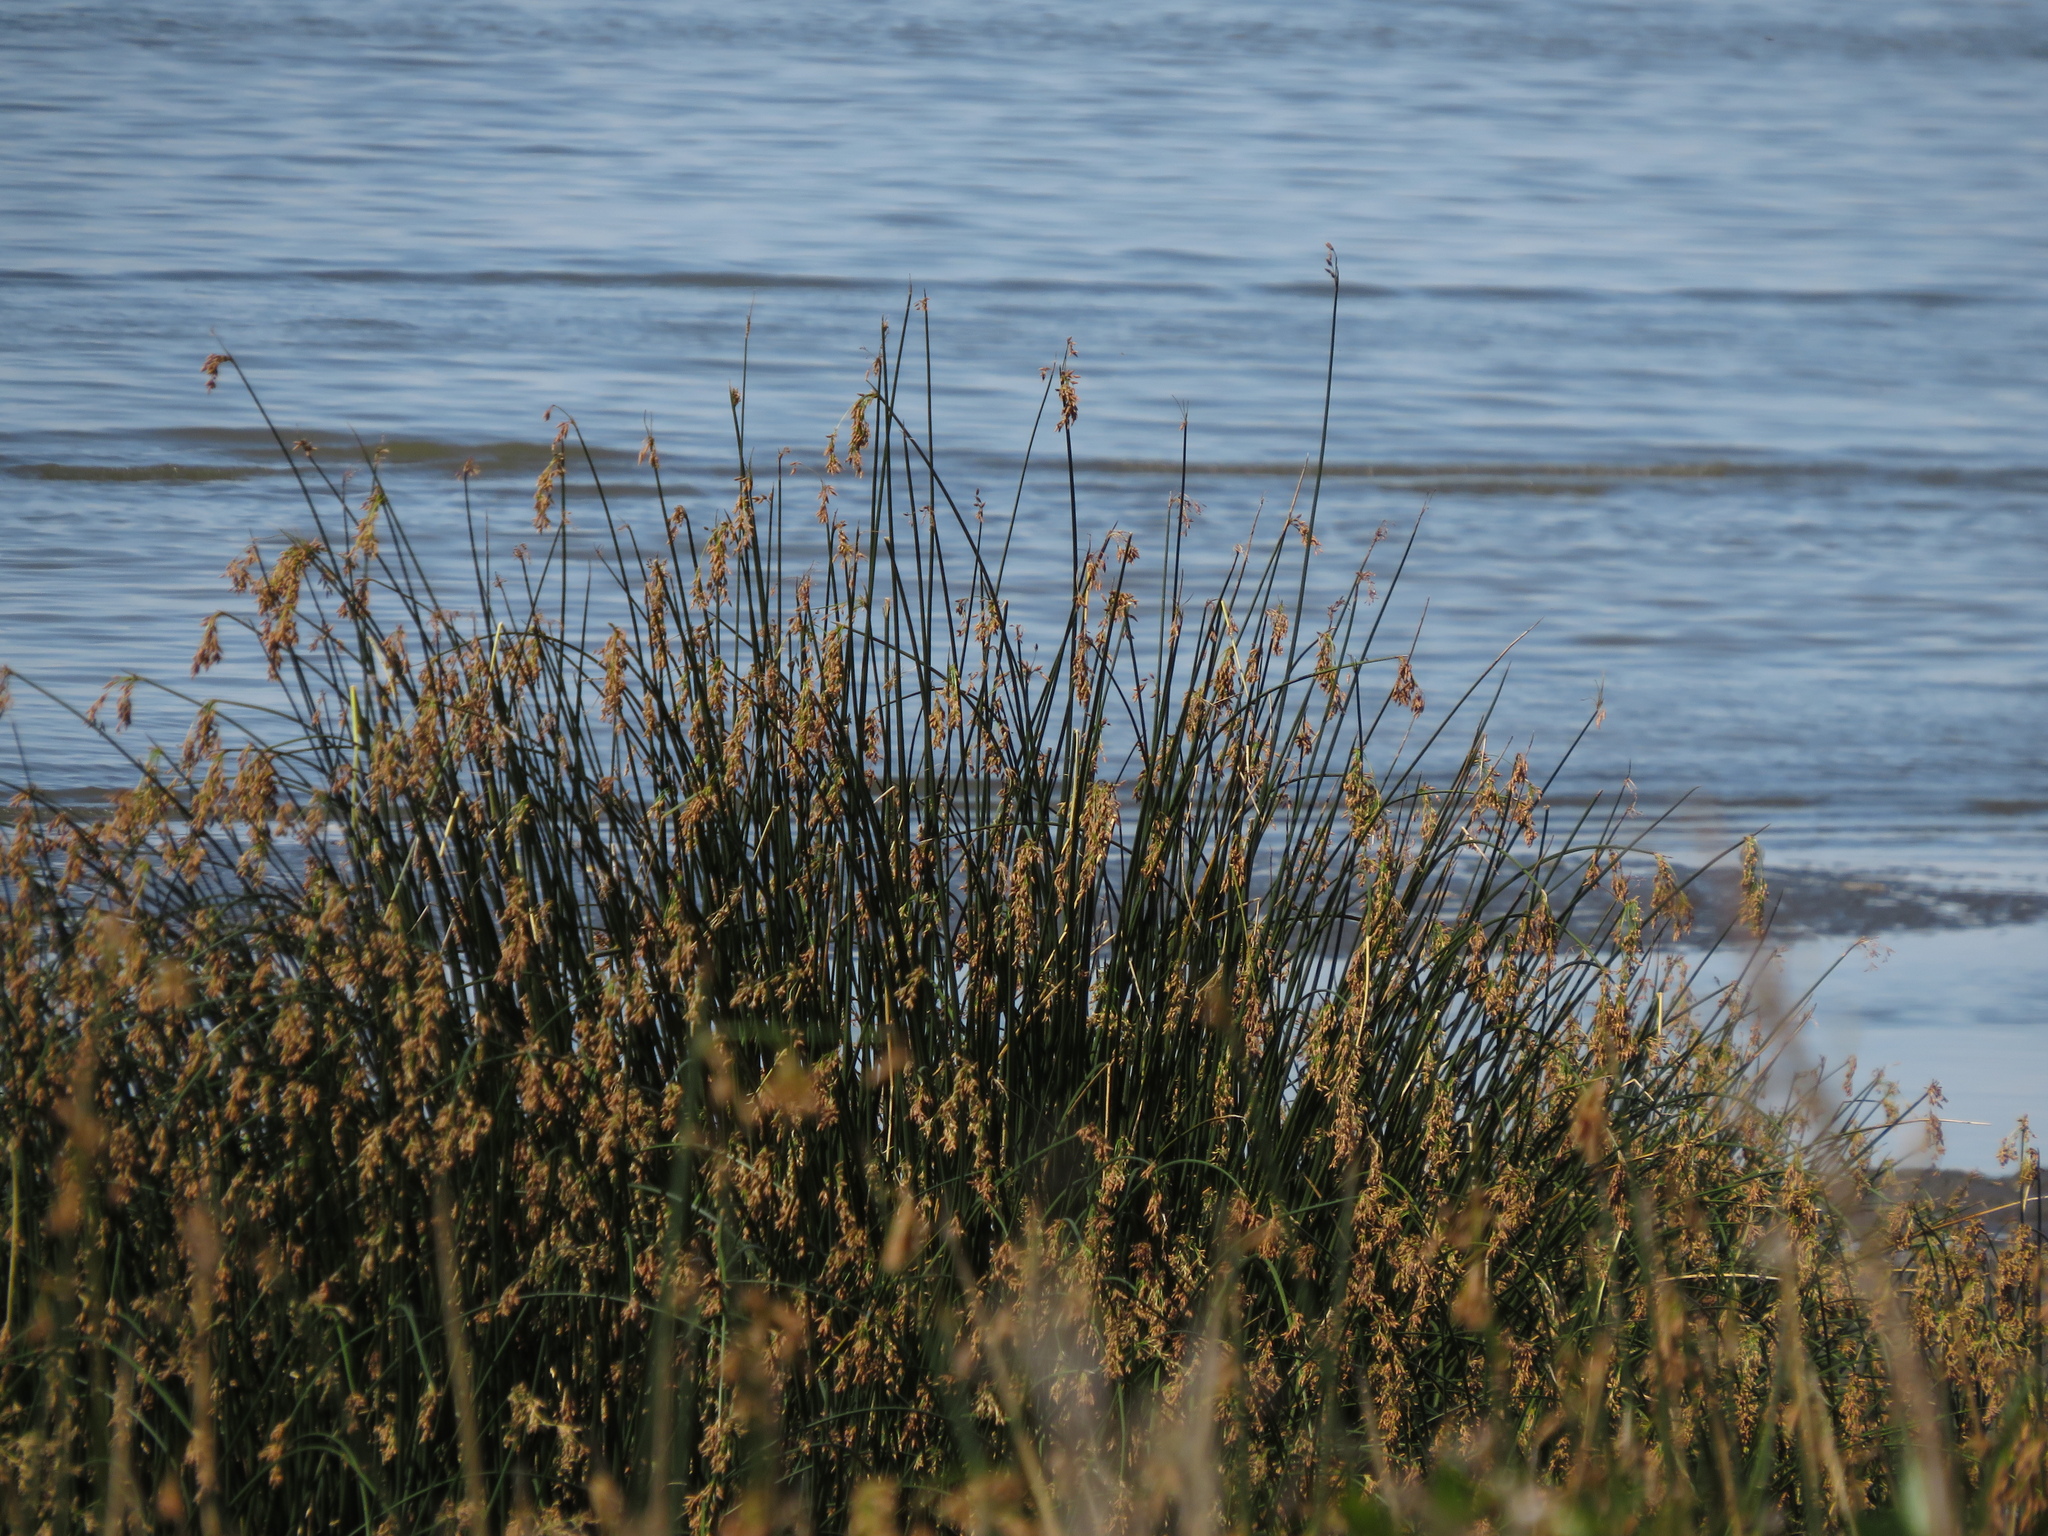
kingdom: Plantae
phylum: Tracheophyta
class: Liliopsida
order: Poales
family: Cyperaceae
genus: Schoenoplectus
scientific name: Schoenoplectus californicus
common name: California bulrush
